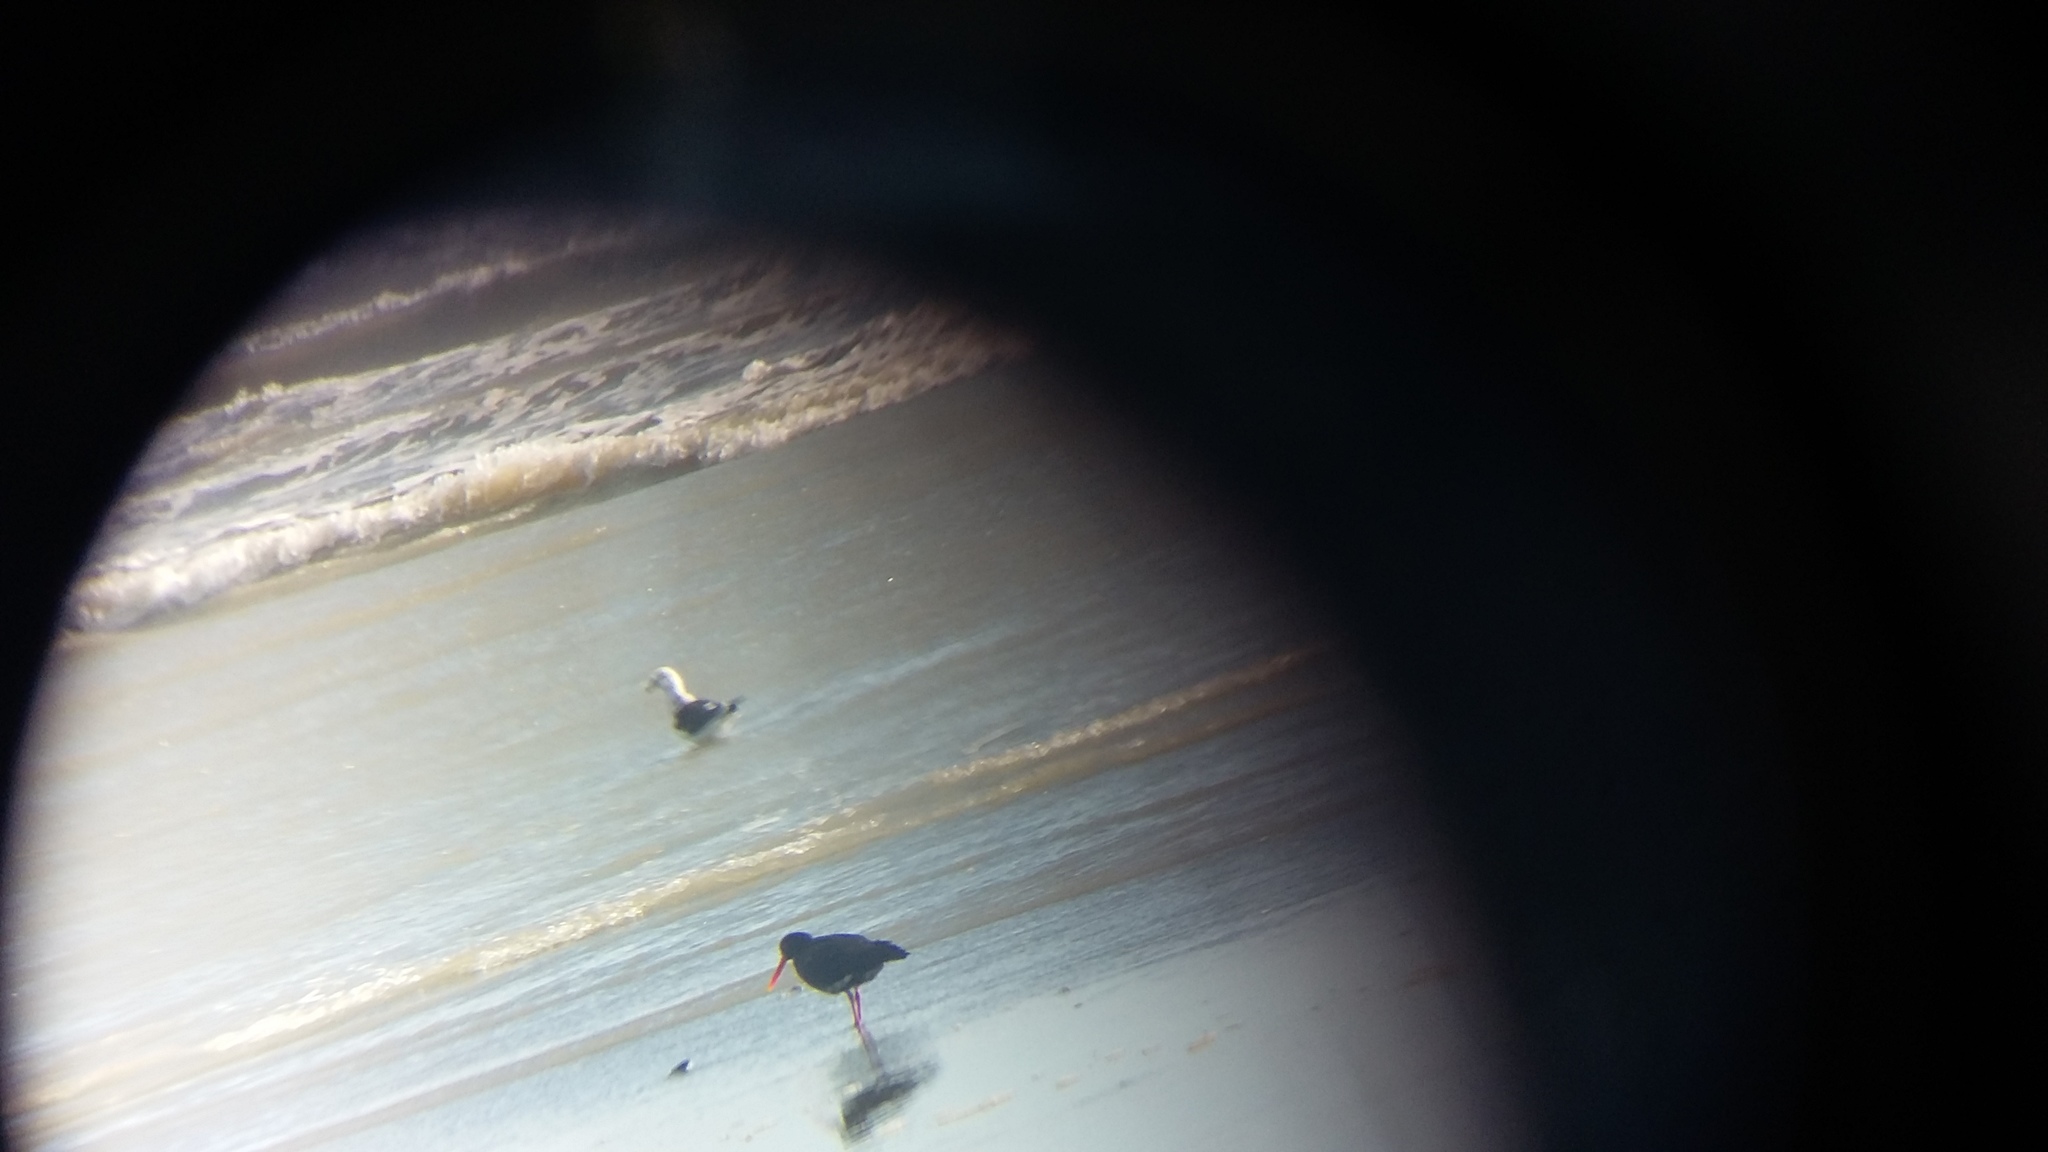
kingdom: Animalia
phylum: Chordata
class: Aves
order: Charadriiformes
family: Haematopodidae
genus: Haematopus
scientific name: Haematopus unicolor
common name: Variable oystercatcher
